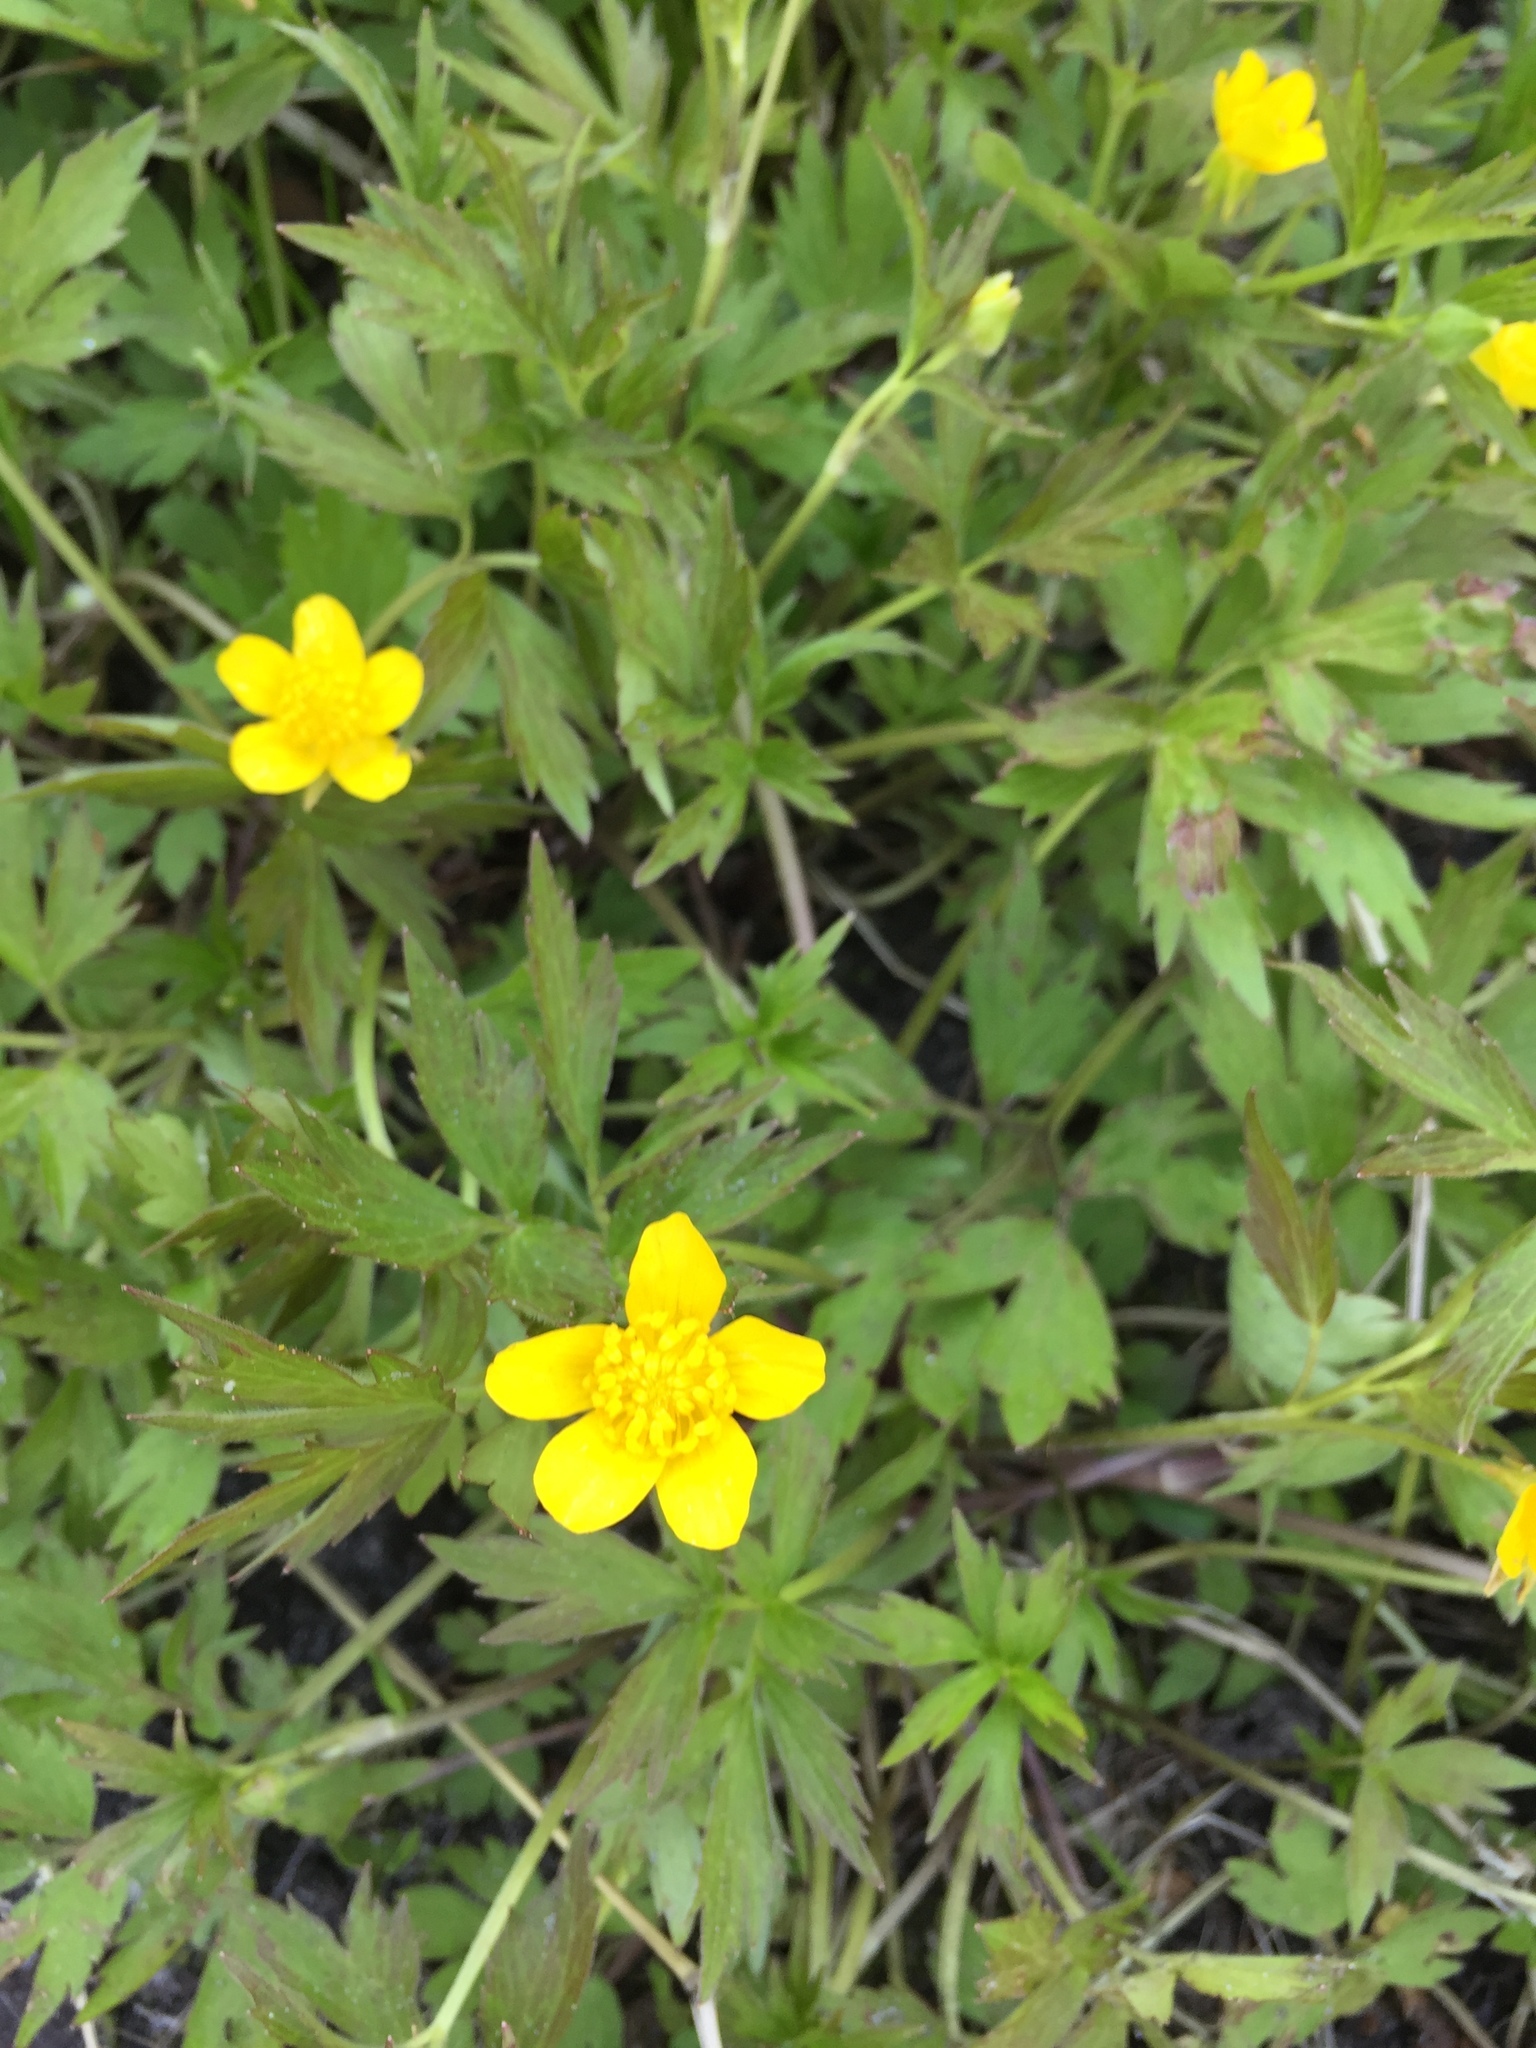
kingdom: Plantae
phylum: Tracheophyta
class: Magnoliopsida
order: Ranunculales
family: Ranunculaceae
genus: Ranunculus
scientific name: Ranunculus hispidus
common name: Bristly buttercup
